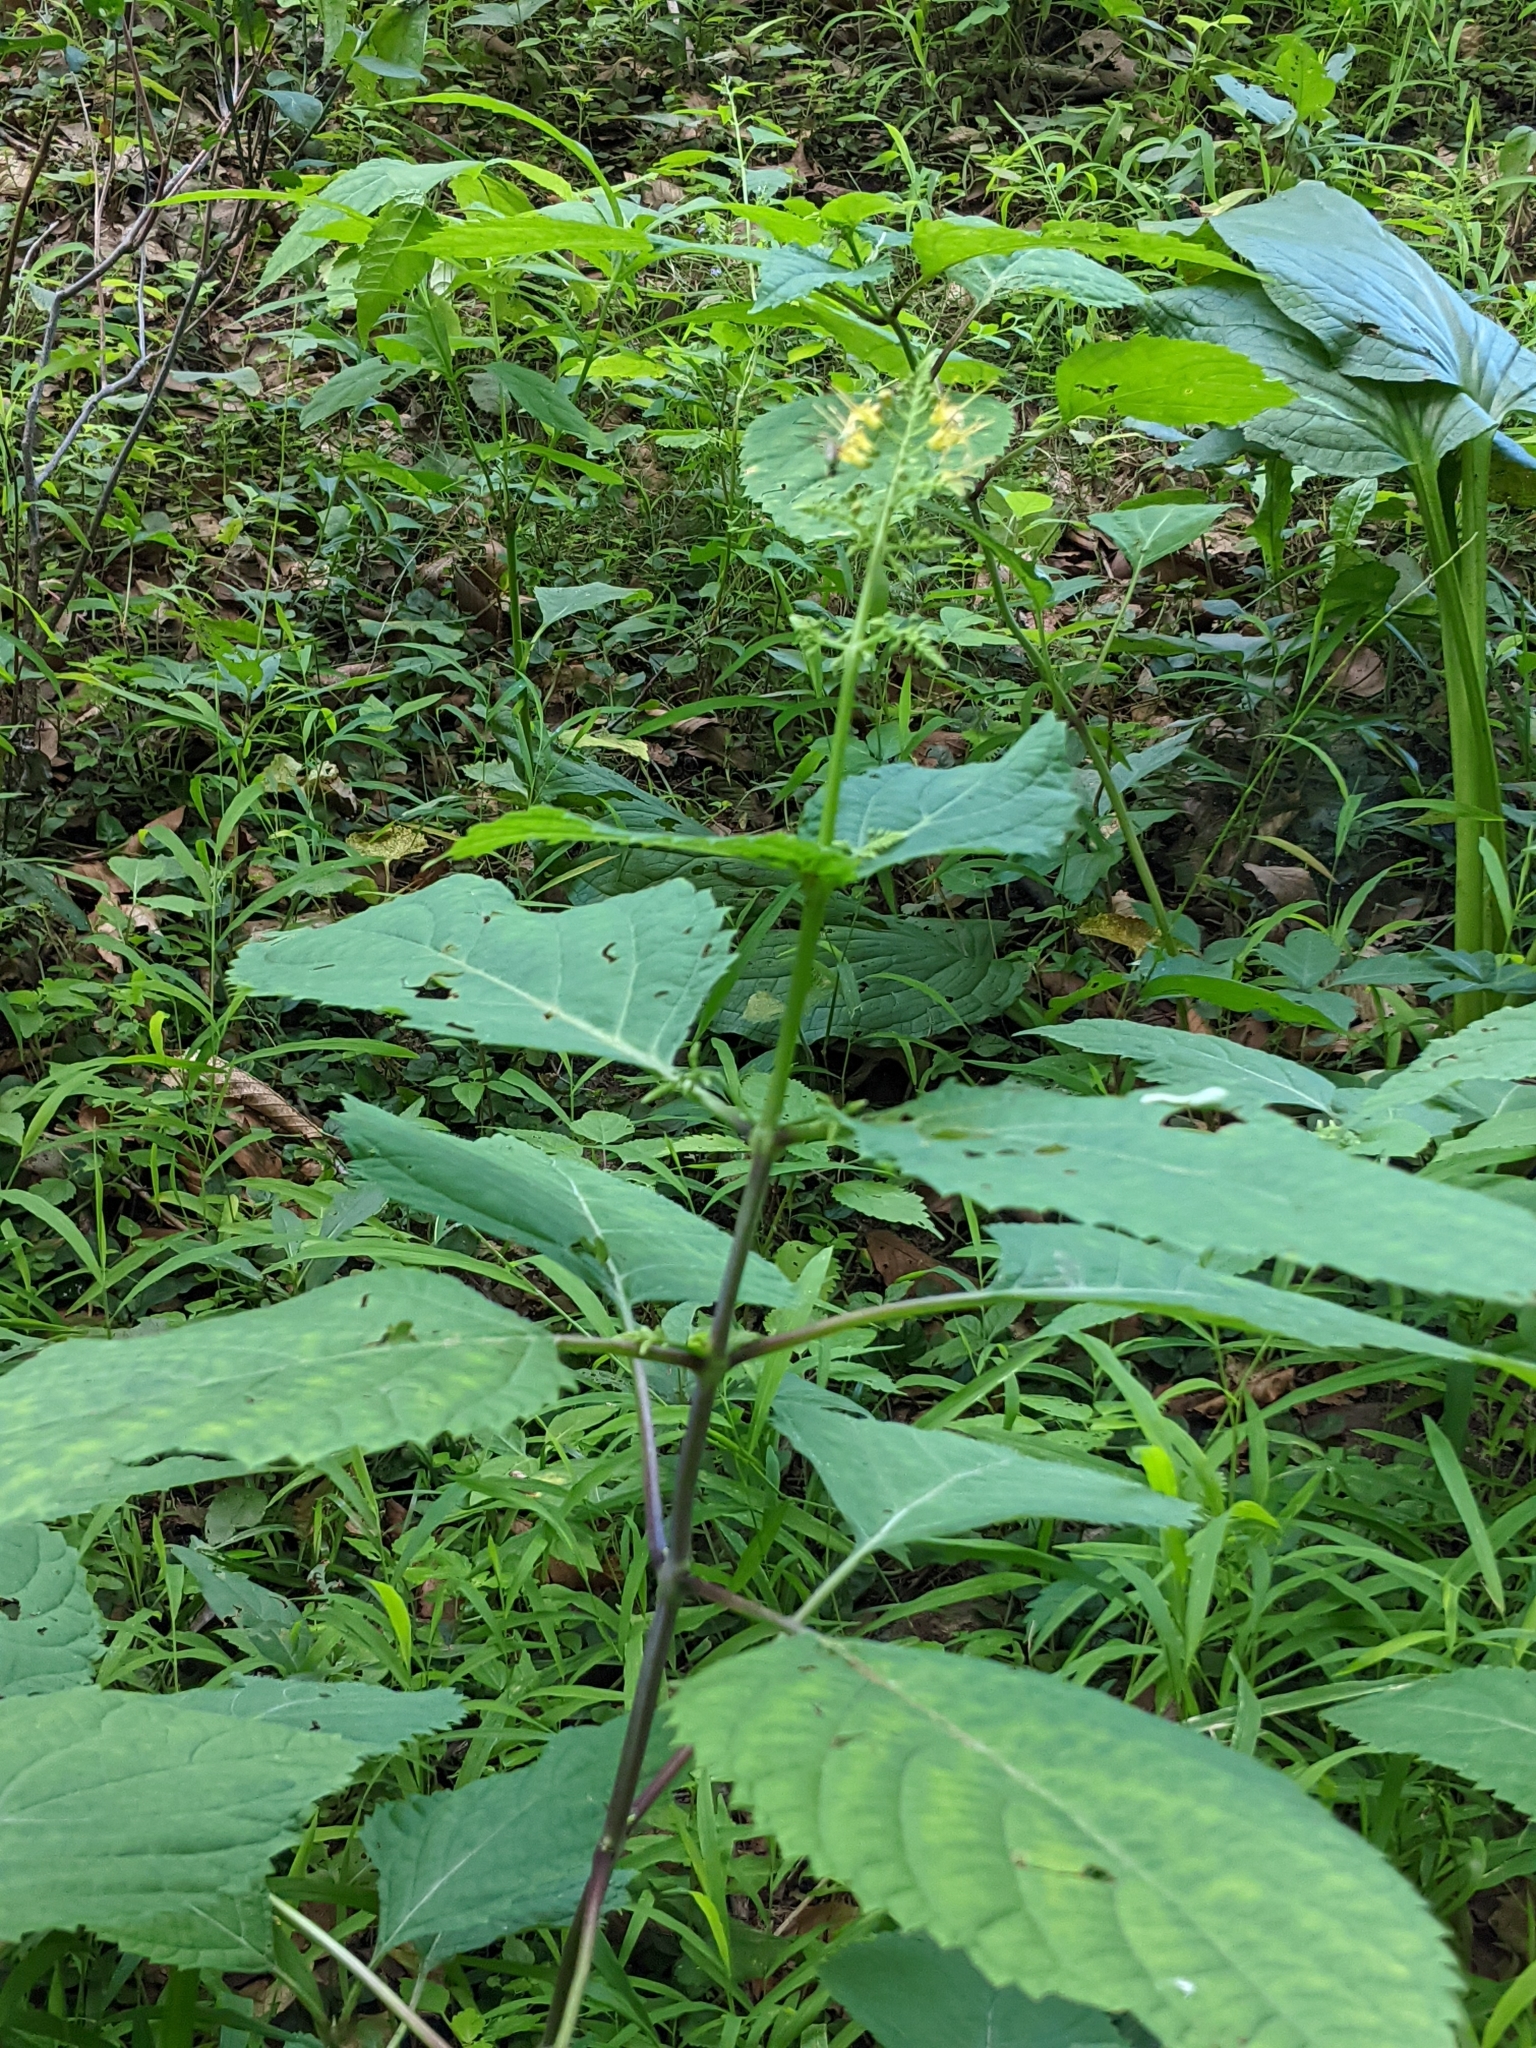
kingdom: Plantae
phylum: Tracheophyta
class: Magnoliopsida
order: Lamiales
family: Lamiaceae
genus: Collinsonia
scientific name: Collinsonia canadensis
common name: Northern horsebalm
